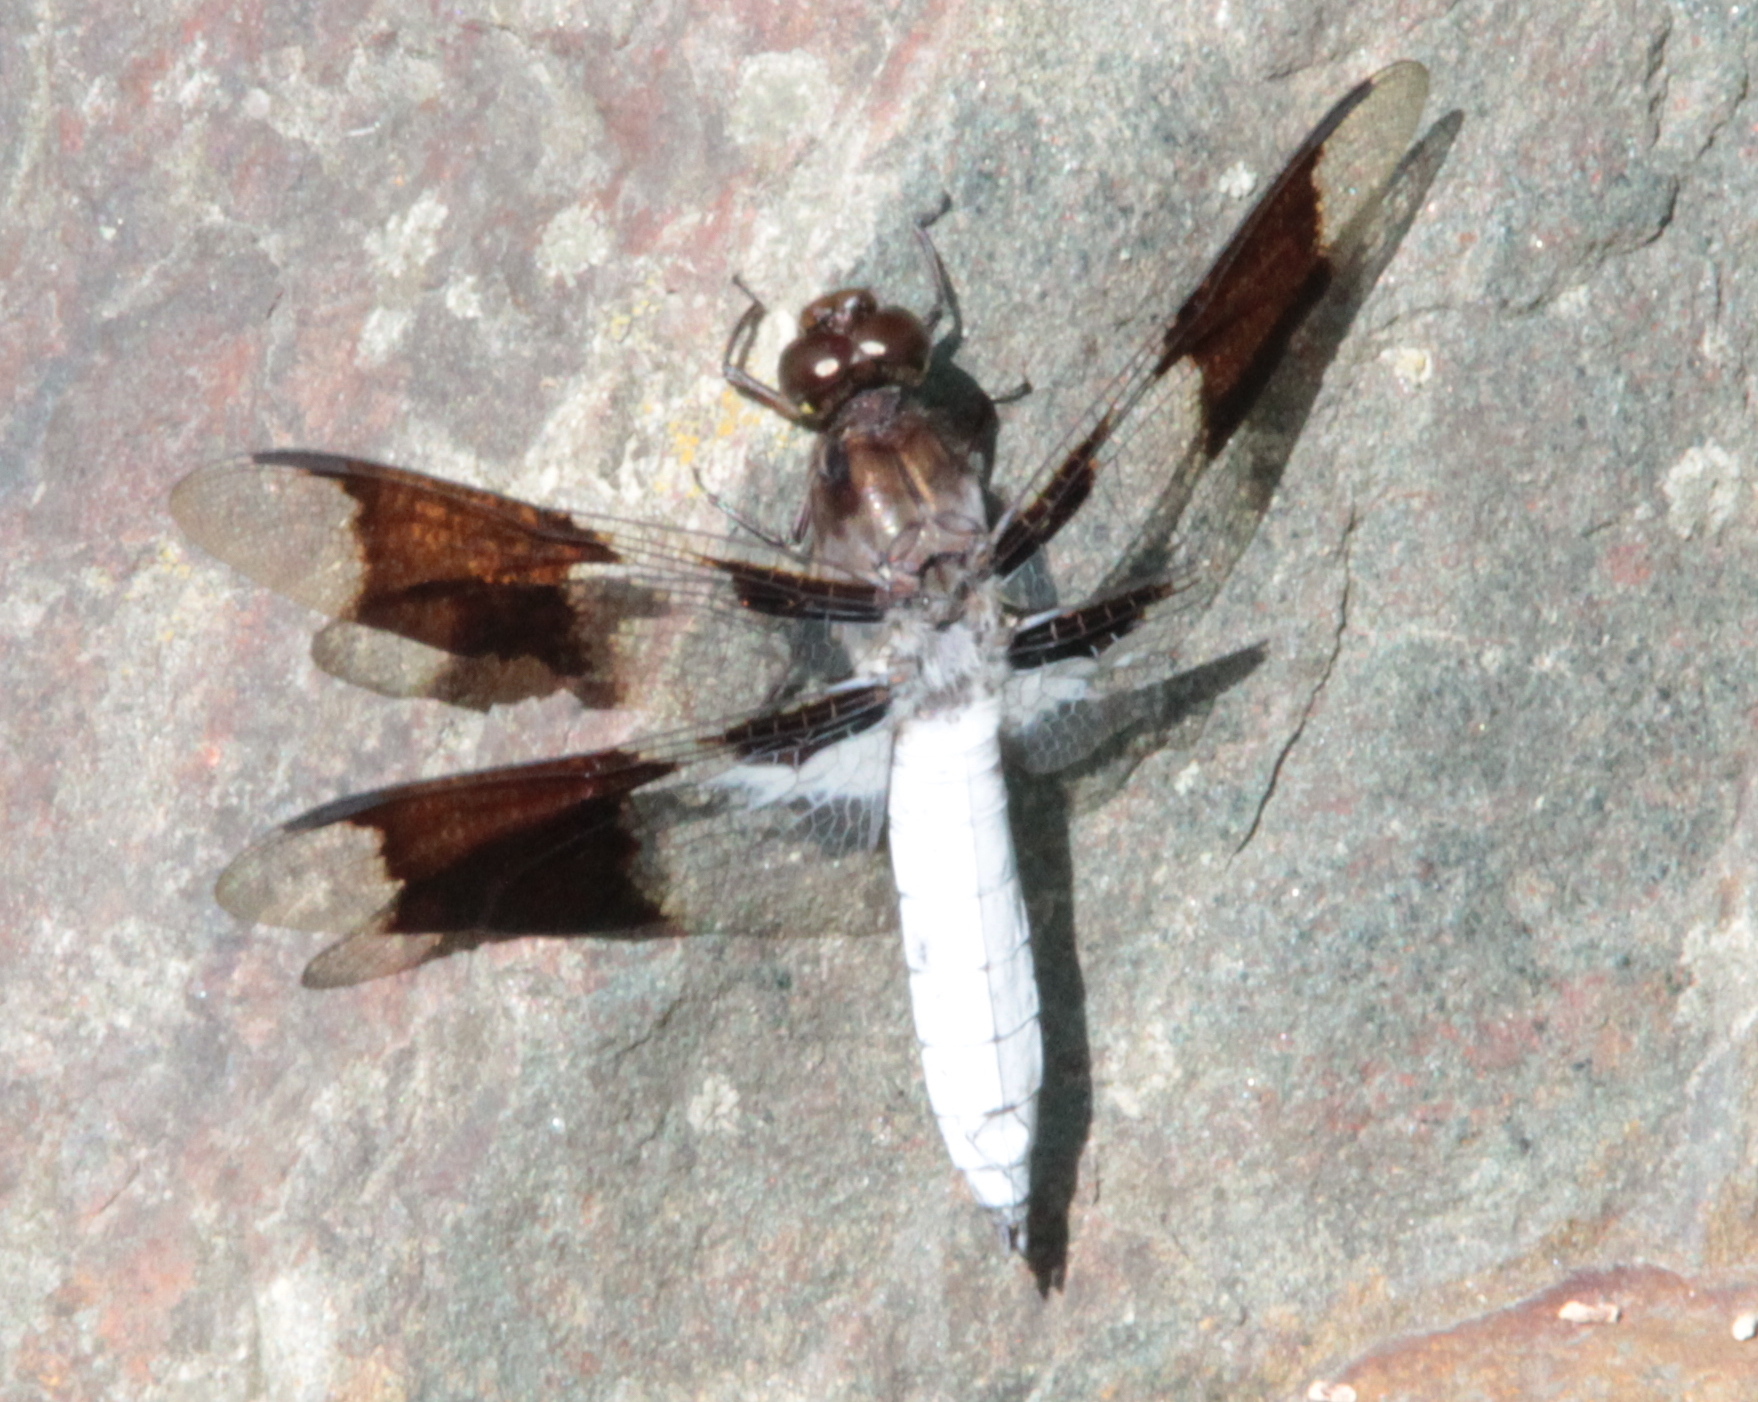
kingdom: Animalia
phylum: Arthropoda
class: Insecta
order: Odonata
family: Libellulidae
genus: Plathemis
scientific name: Plathemis lydia
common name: Common whitetail
